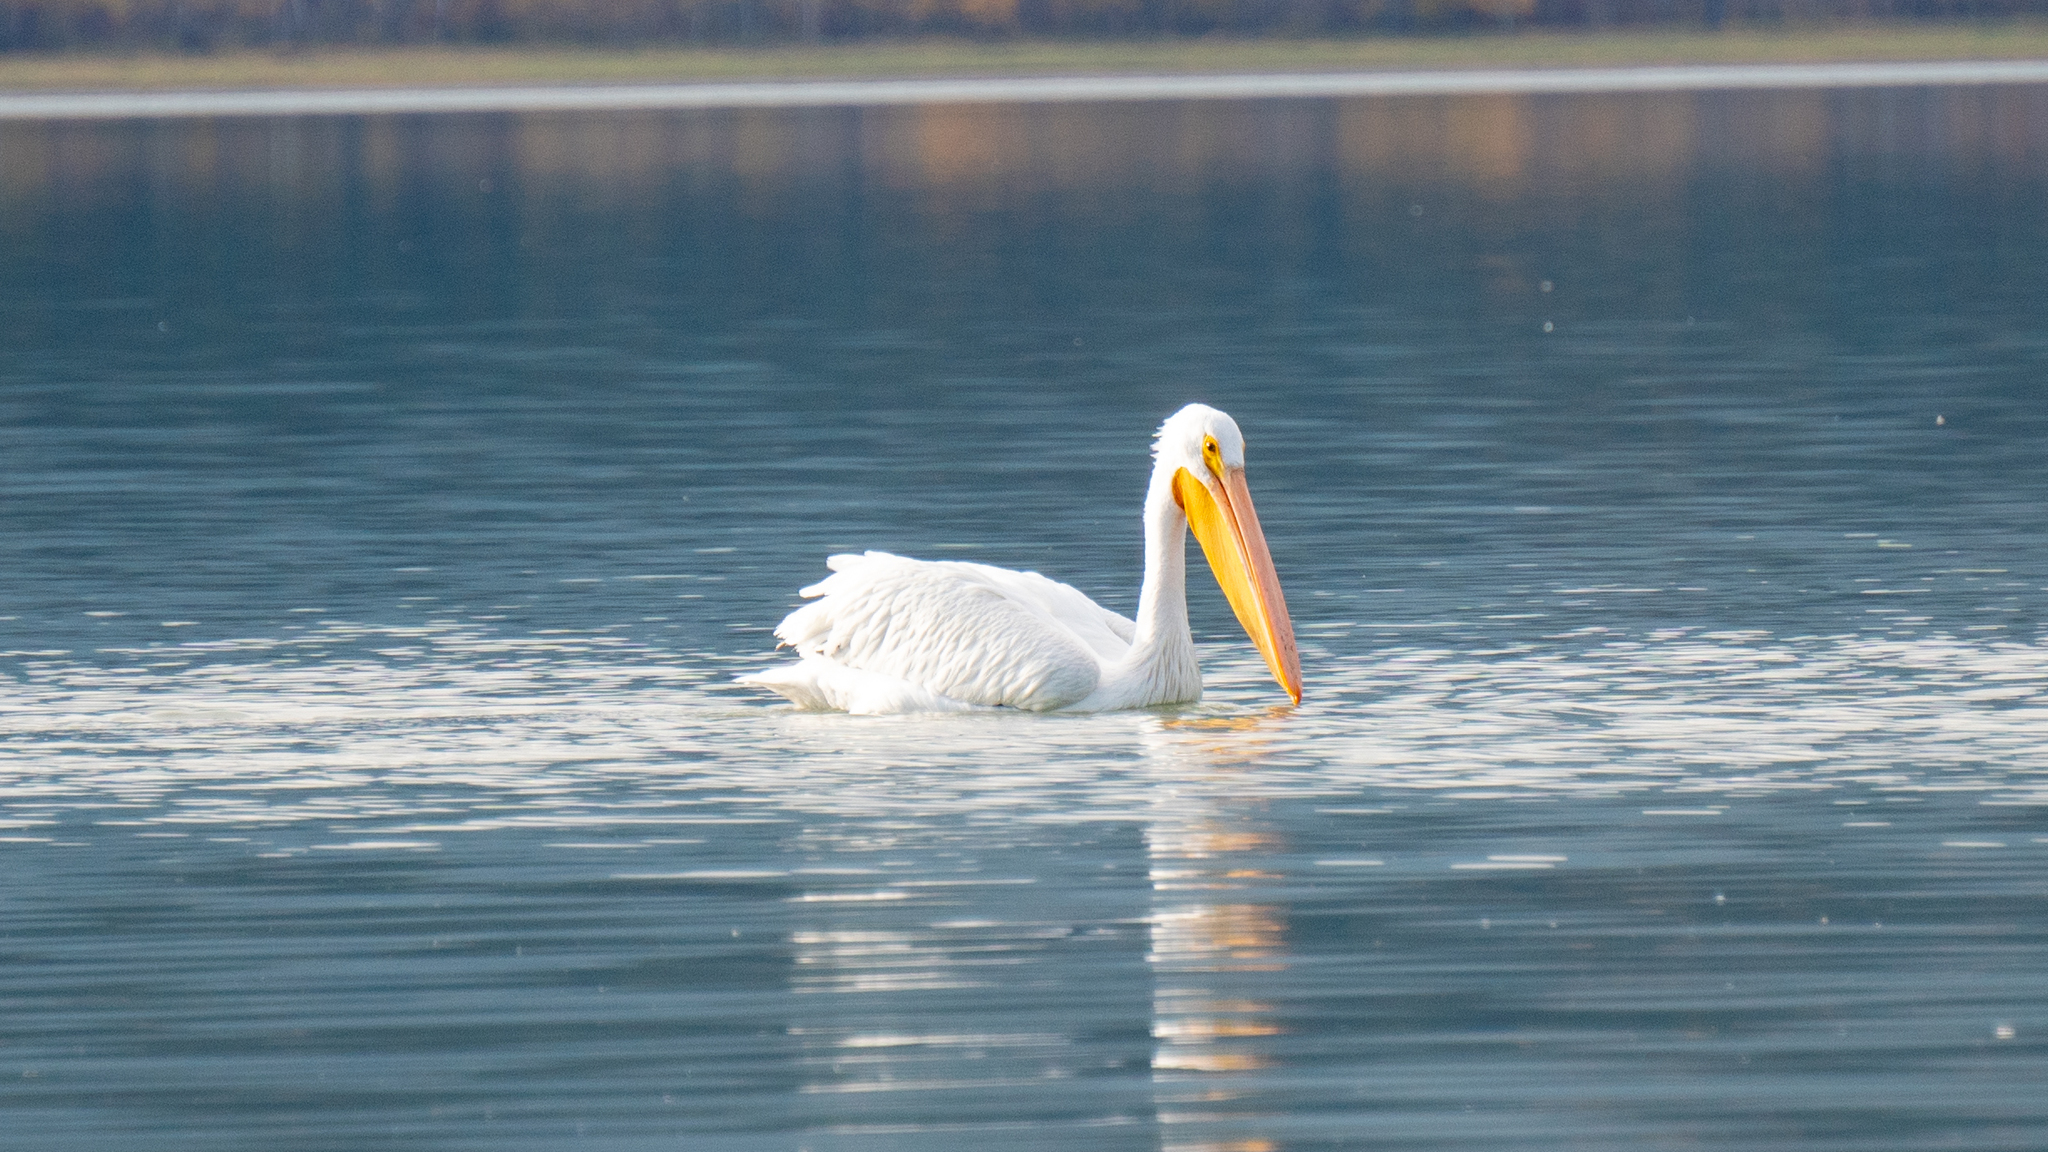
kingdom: Animalia
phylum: Chordata
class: Aves
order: Pelecaniformes
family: Pelecanidae
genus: Pelecanus
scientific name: Pelecanus erythrorhynchos
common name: American white pelican
